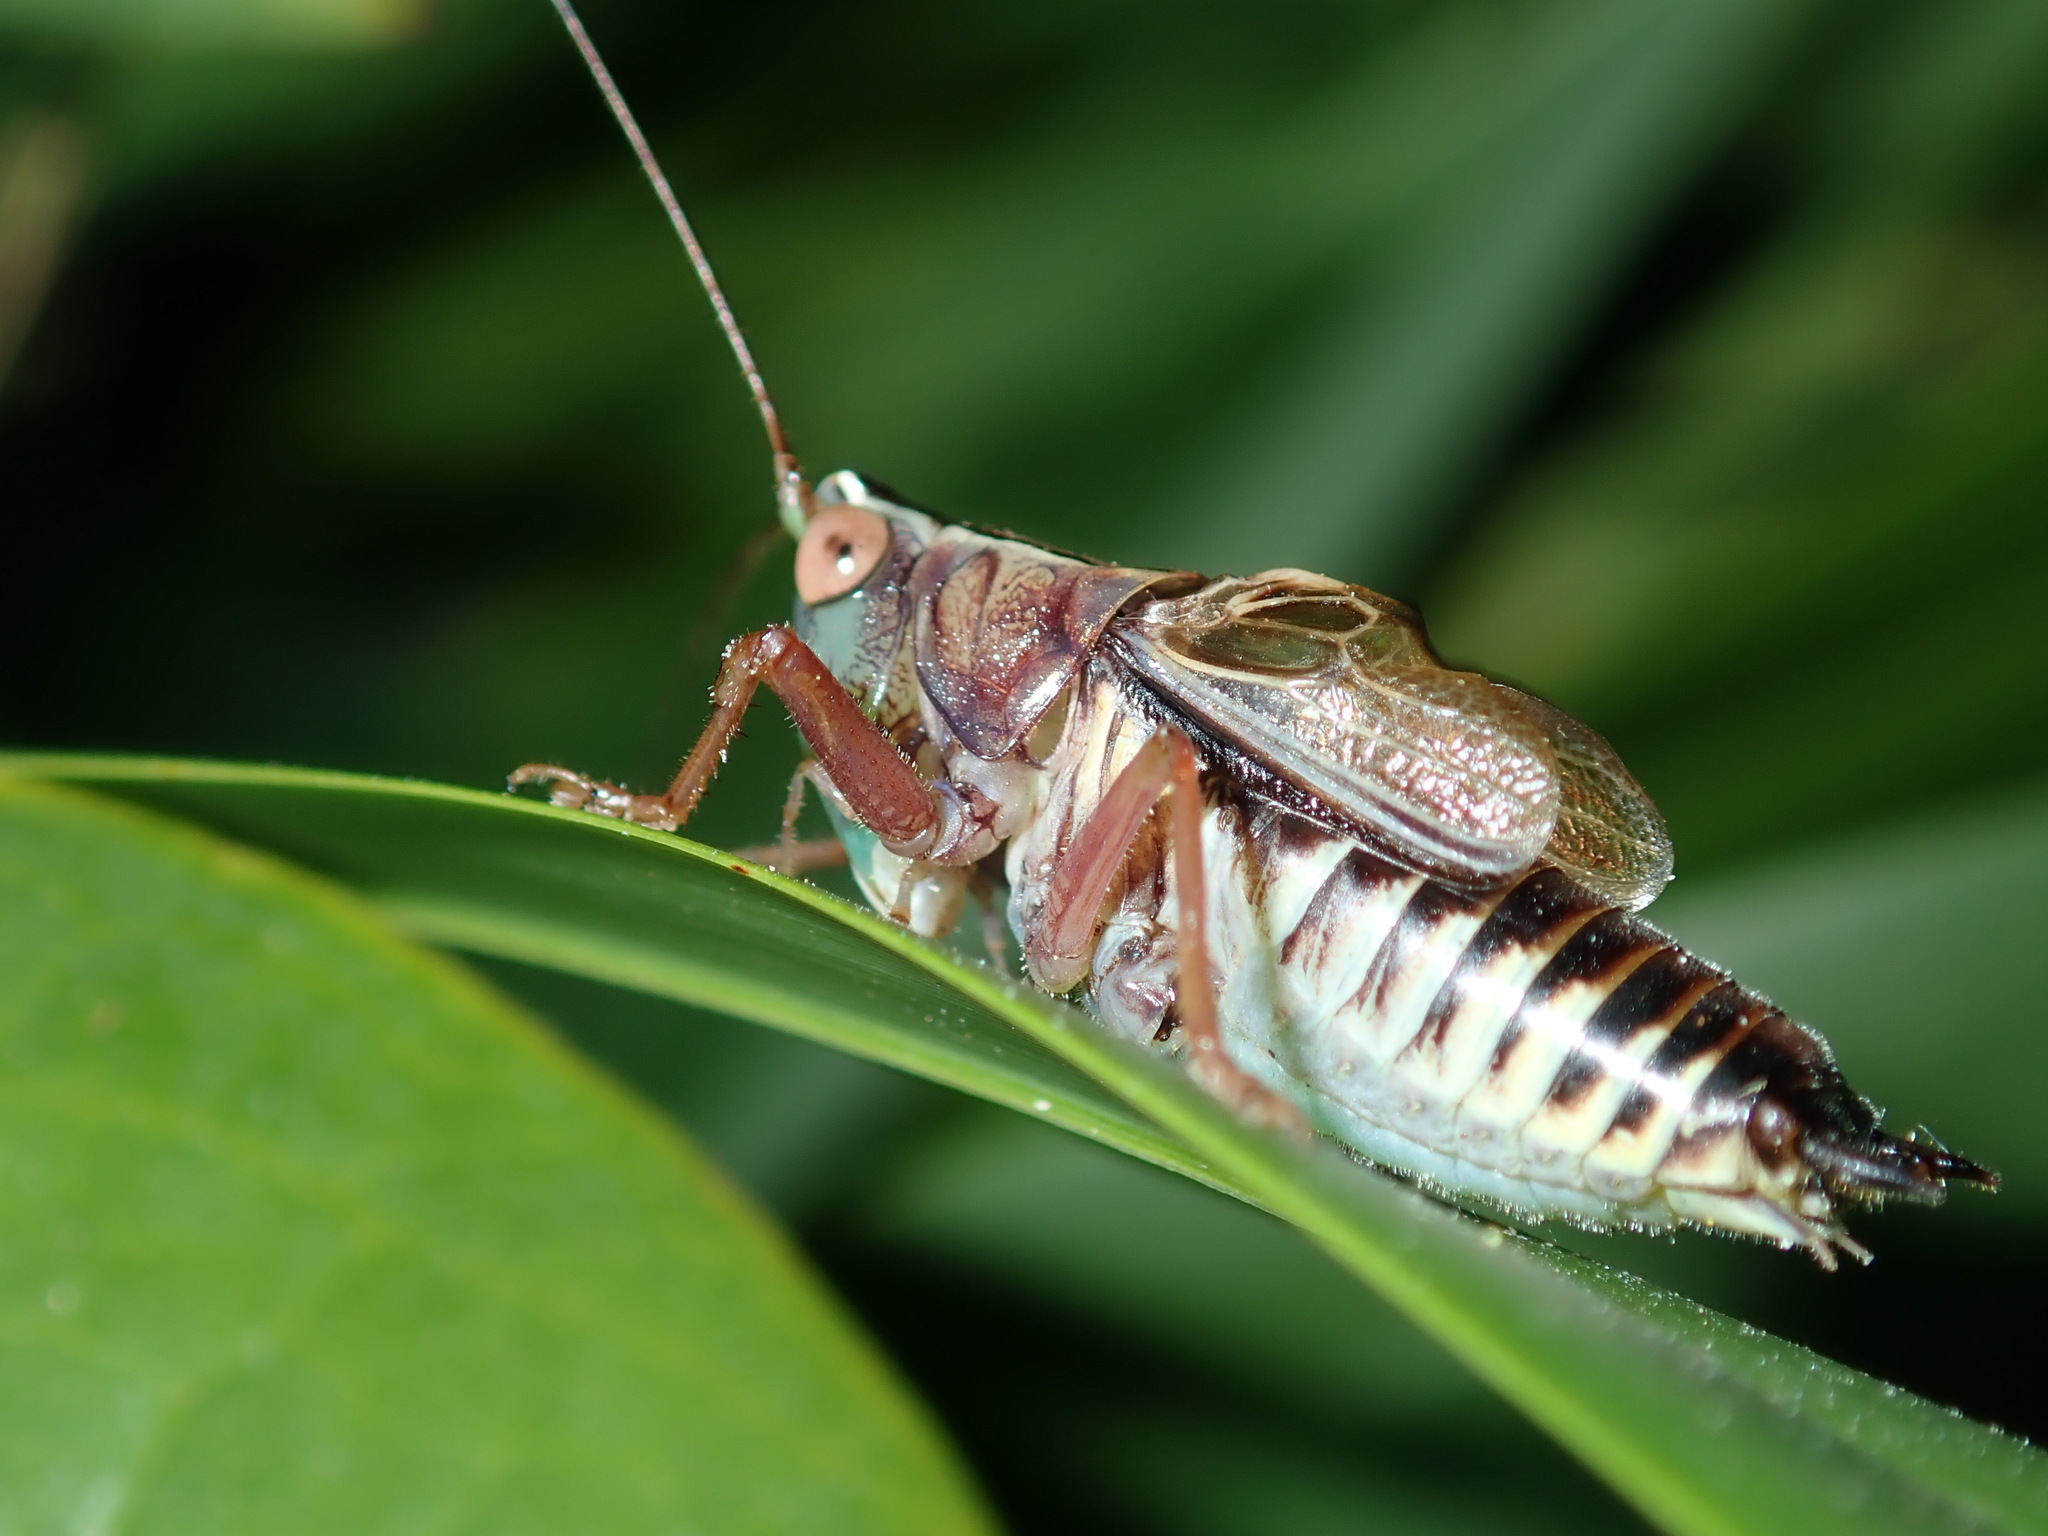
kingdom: Animalia
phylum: Arthropoda
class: Insecta
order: Orthoptera
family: Tettigoniidae
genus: Conocephalus
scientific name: Conocephalus semivittatus
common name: Blackish meadow katydid
